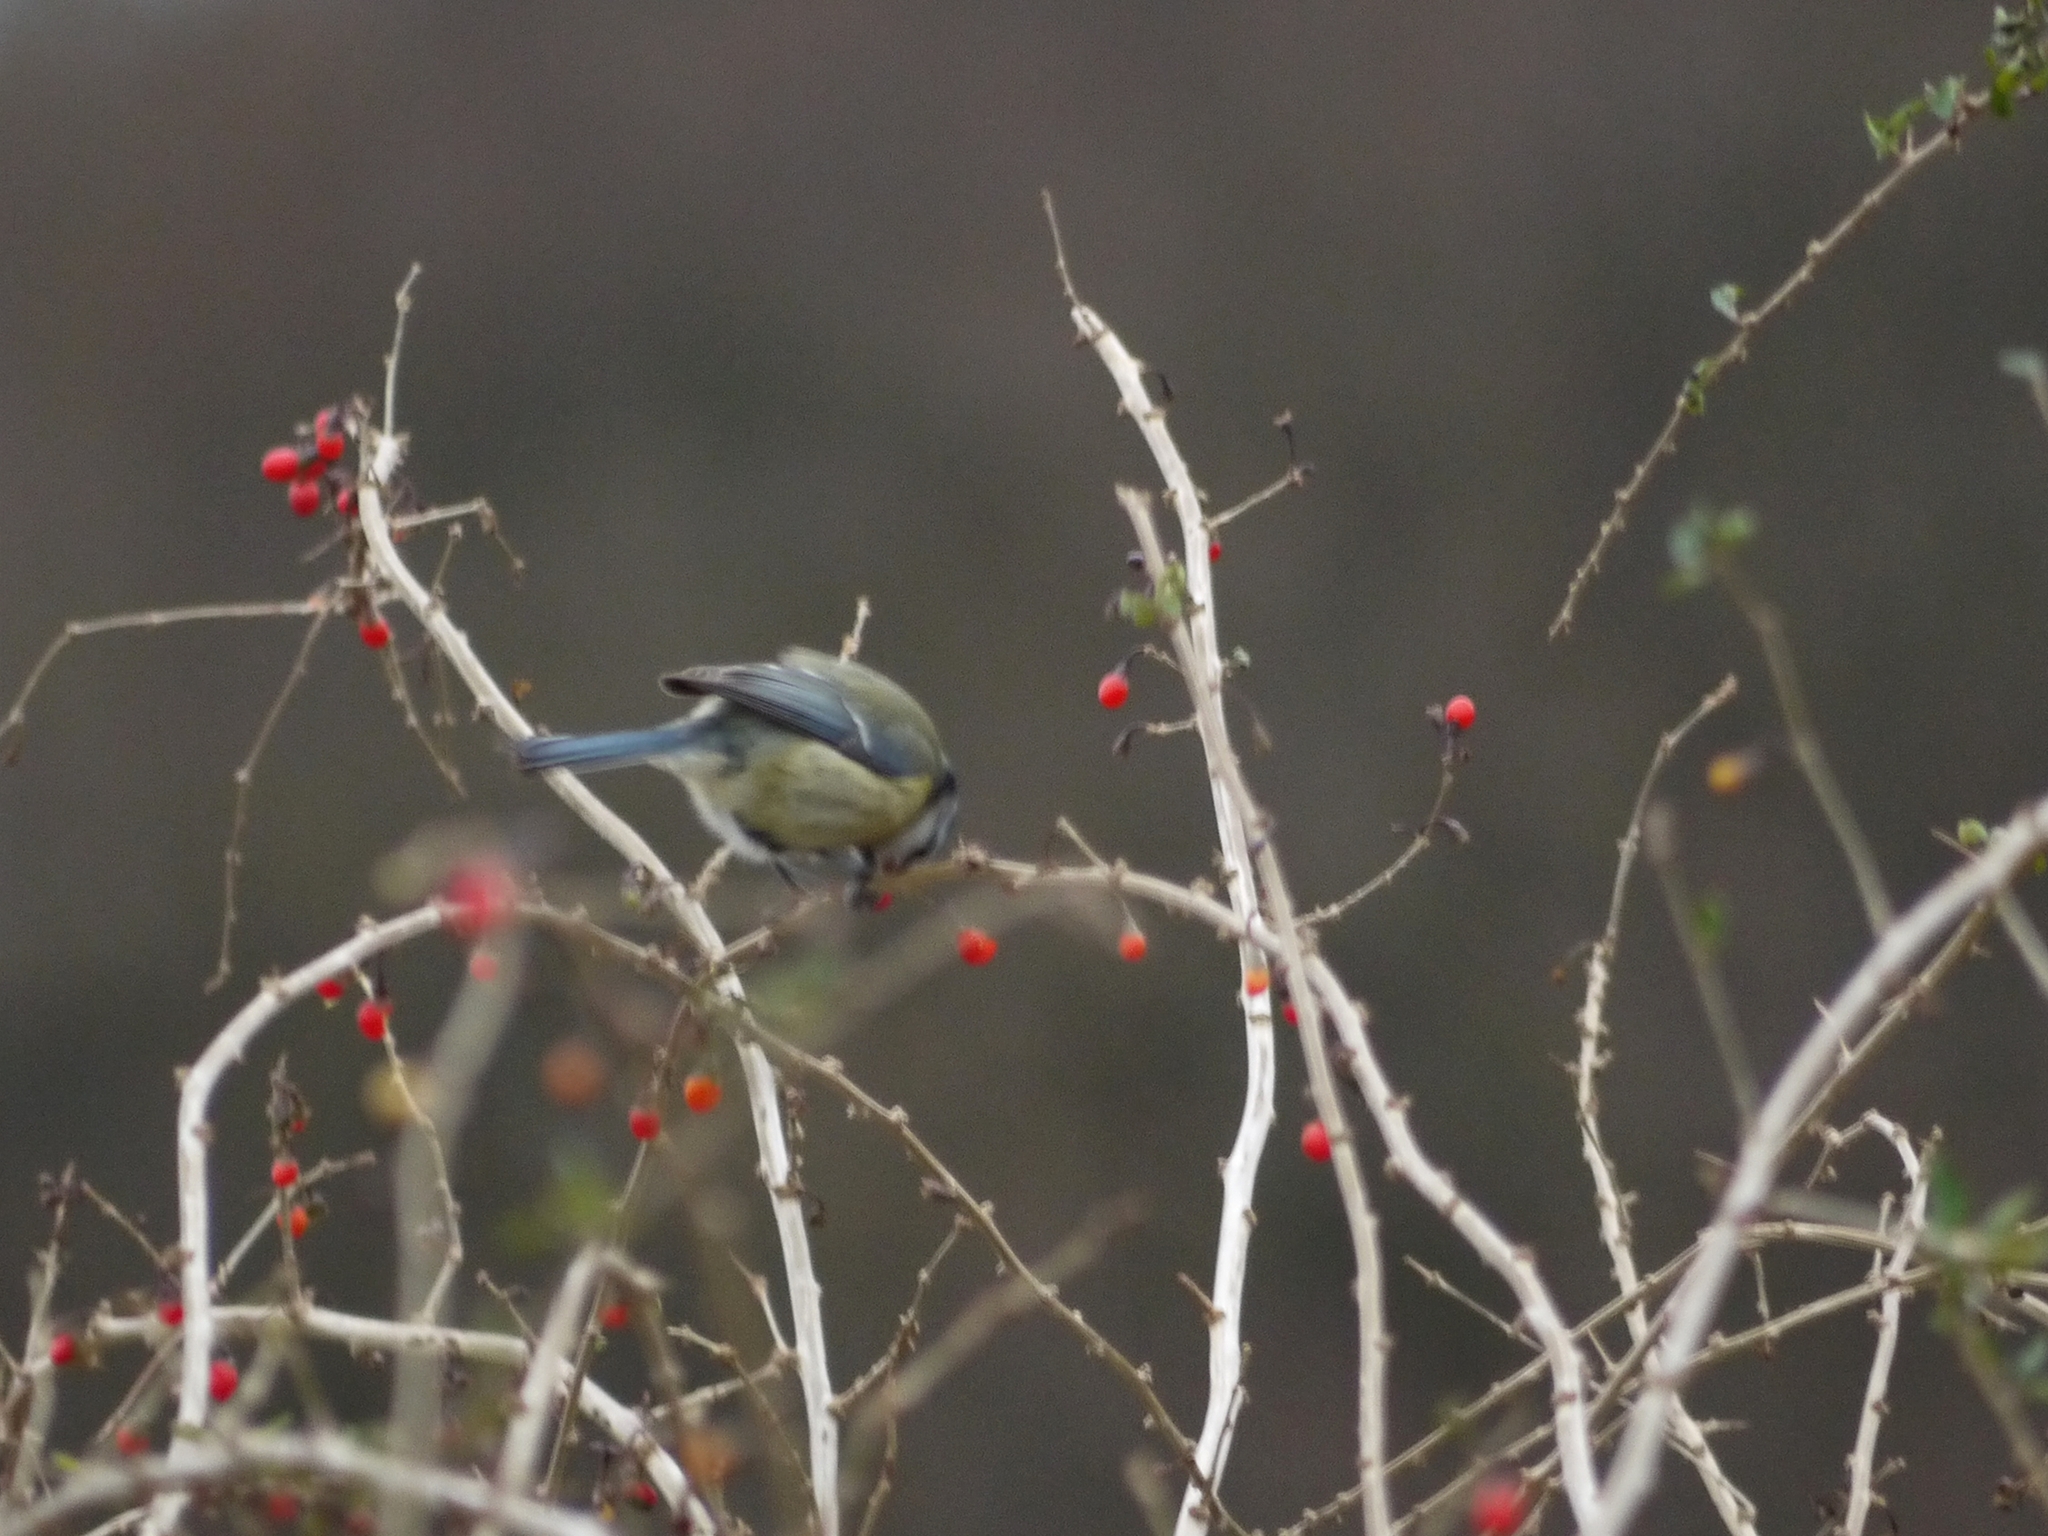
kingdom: Animalia
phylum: Chordata
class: Aves
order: Passeriformes
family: Paridae
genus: Cyanistes
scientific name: Cyanistes caeruleus
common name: Eurasian blue tit
